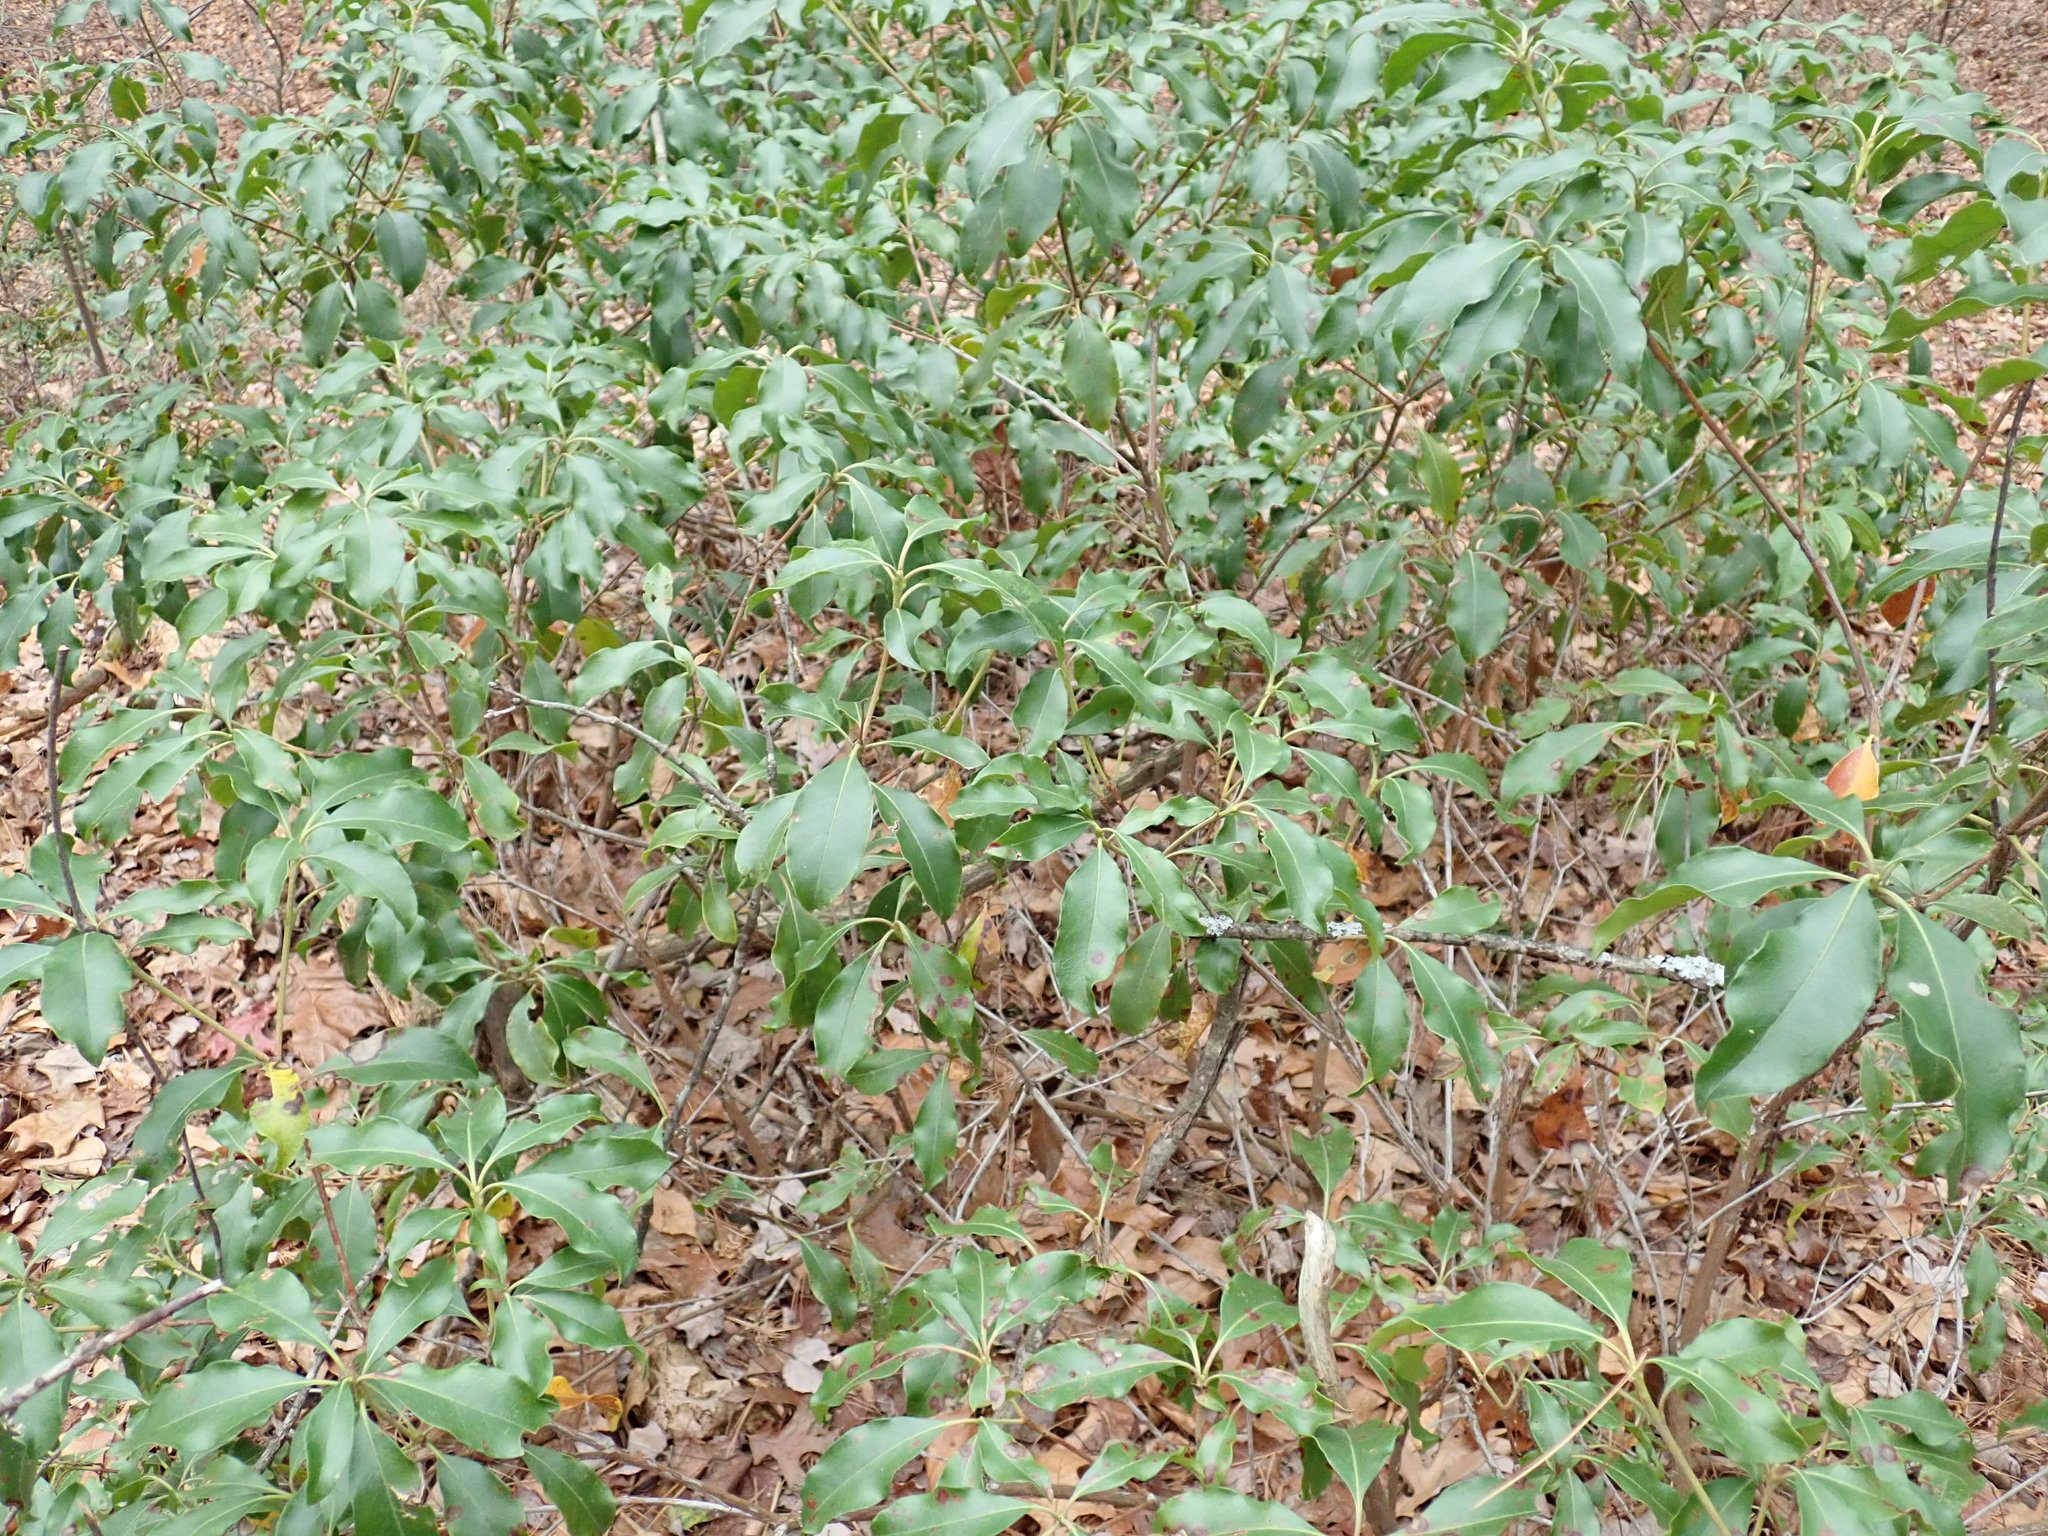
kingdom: Plantae
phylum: Tracheophyta
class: Magnoliopsida
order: Ericales
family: Ericaceae
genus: Kalmia
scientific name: Kalmia latifolia
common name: Mountain-laurel
